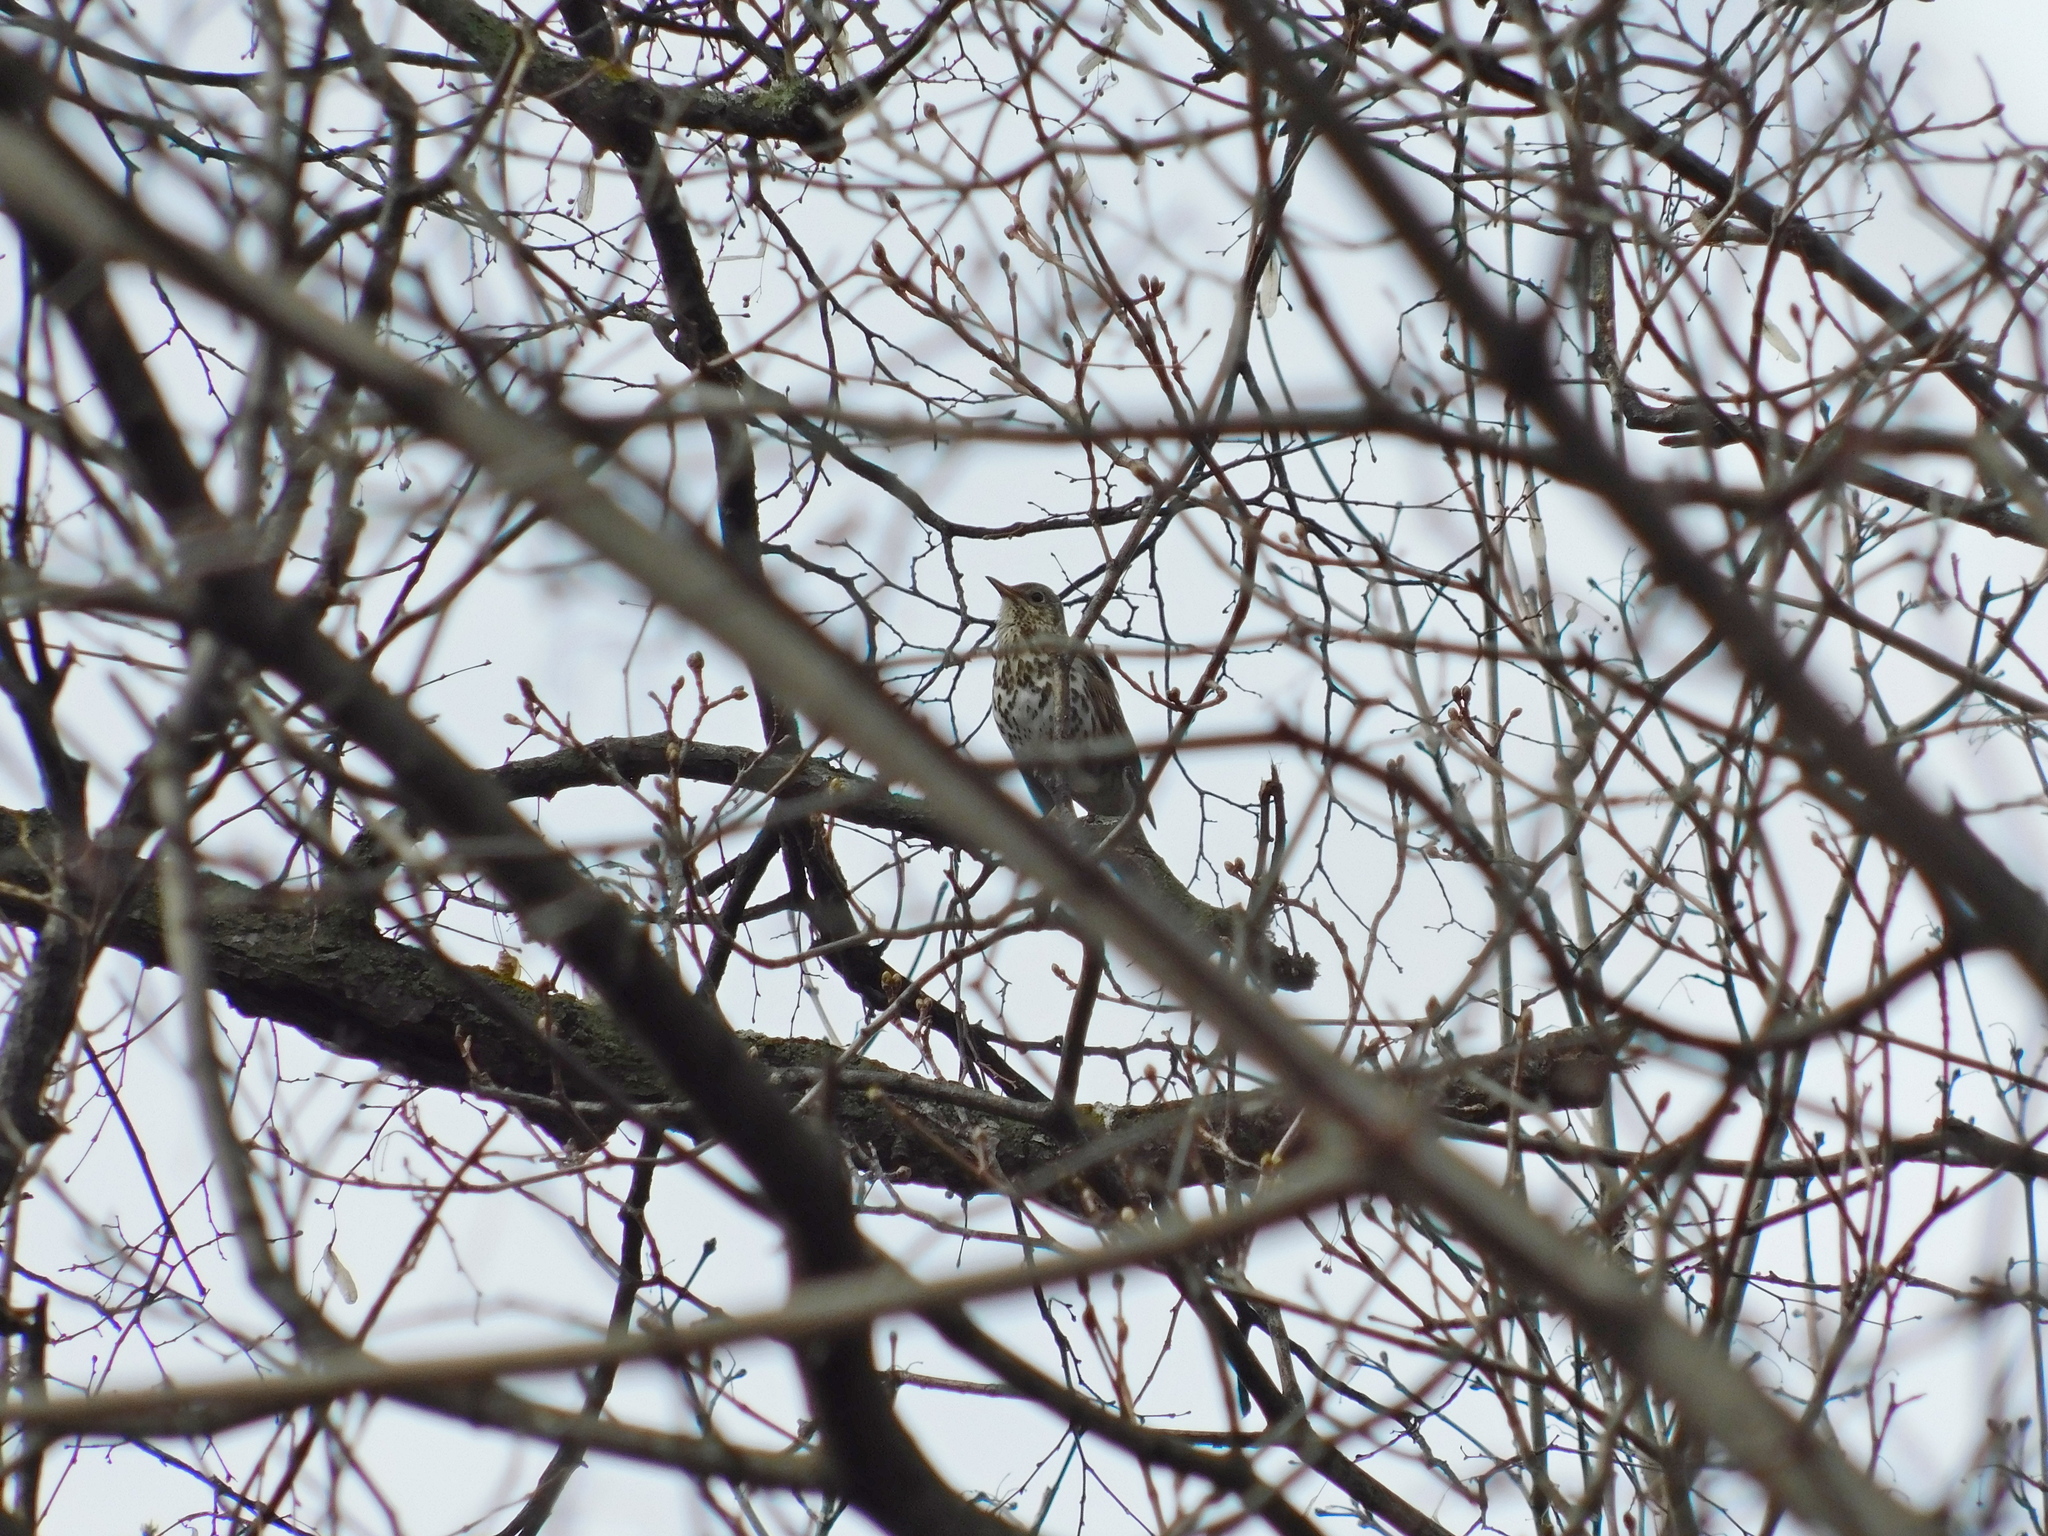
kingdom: Animalia
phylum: Chordata
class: Aves
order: Passeriformes
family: Turdidae
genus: Turdus
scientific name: Turdus philomelos
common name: Song thrush
